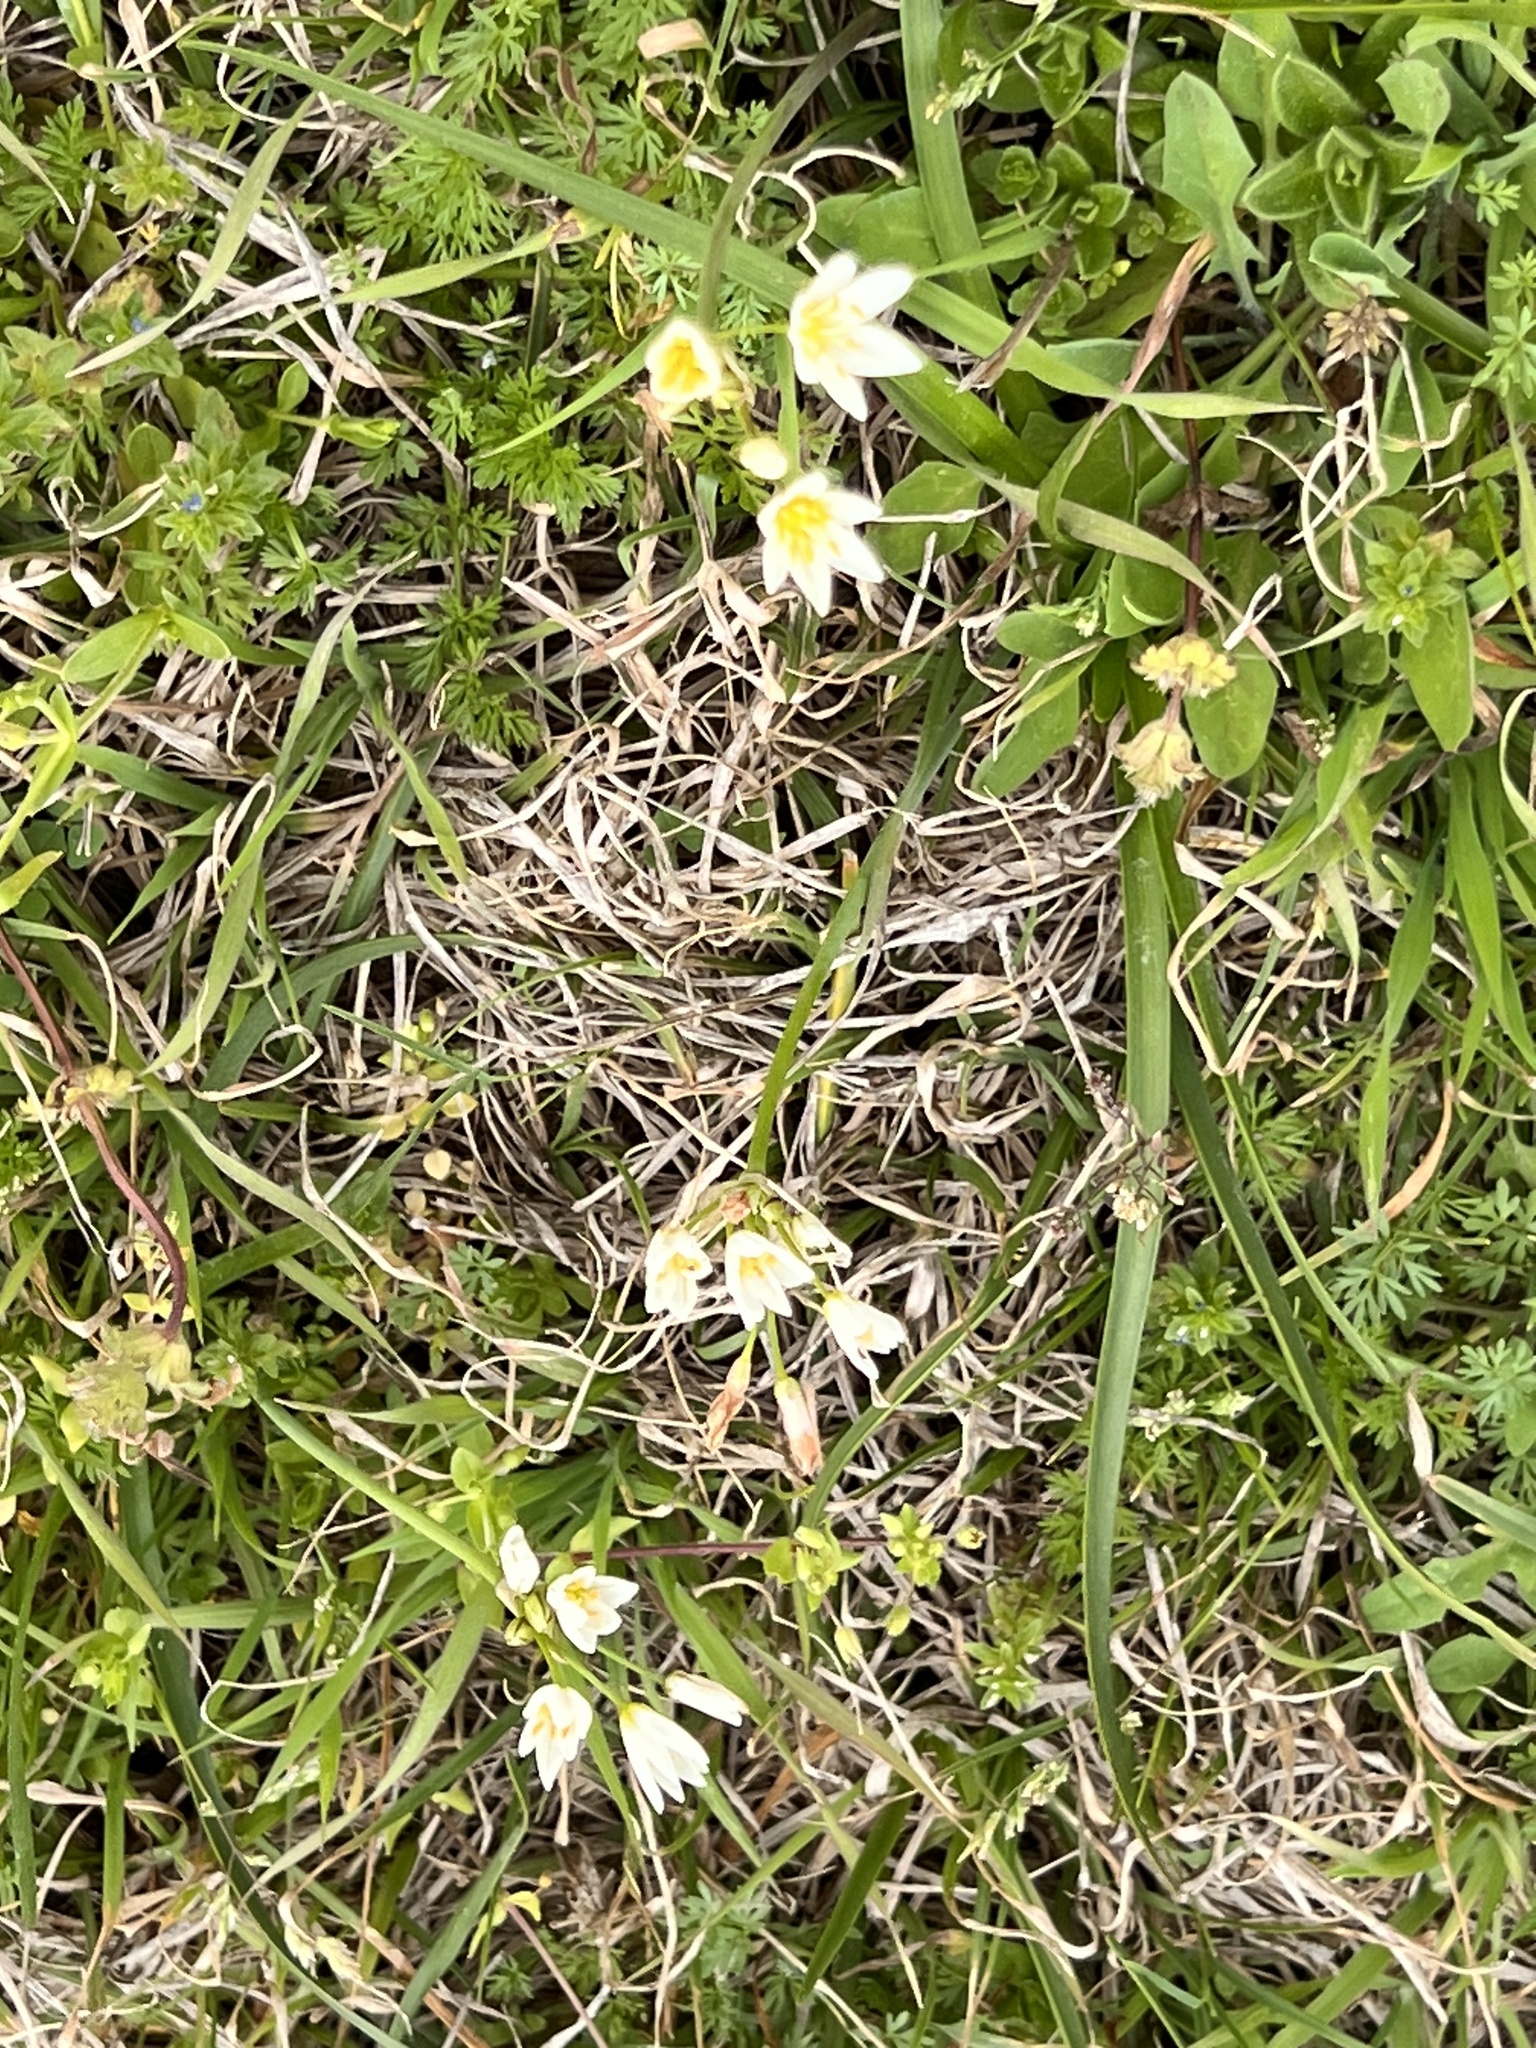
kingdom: Plantae
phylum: Tracheophyta
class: Liliopsida
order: Asparagales
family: Amaryllidaceae
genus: Nothoscordum
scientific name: Nothoscordum bivalve
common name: Crow-poison
